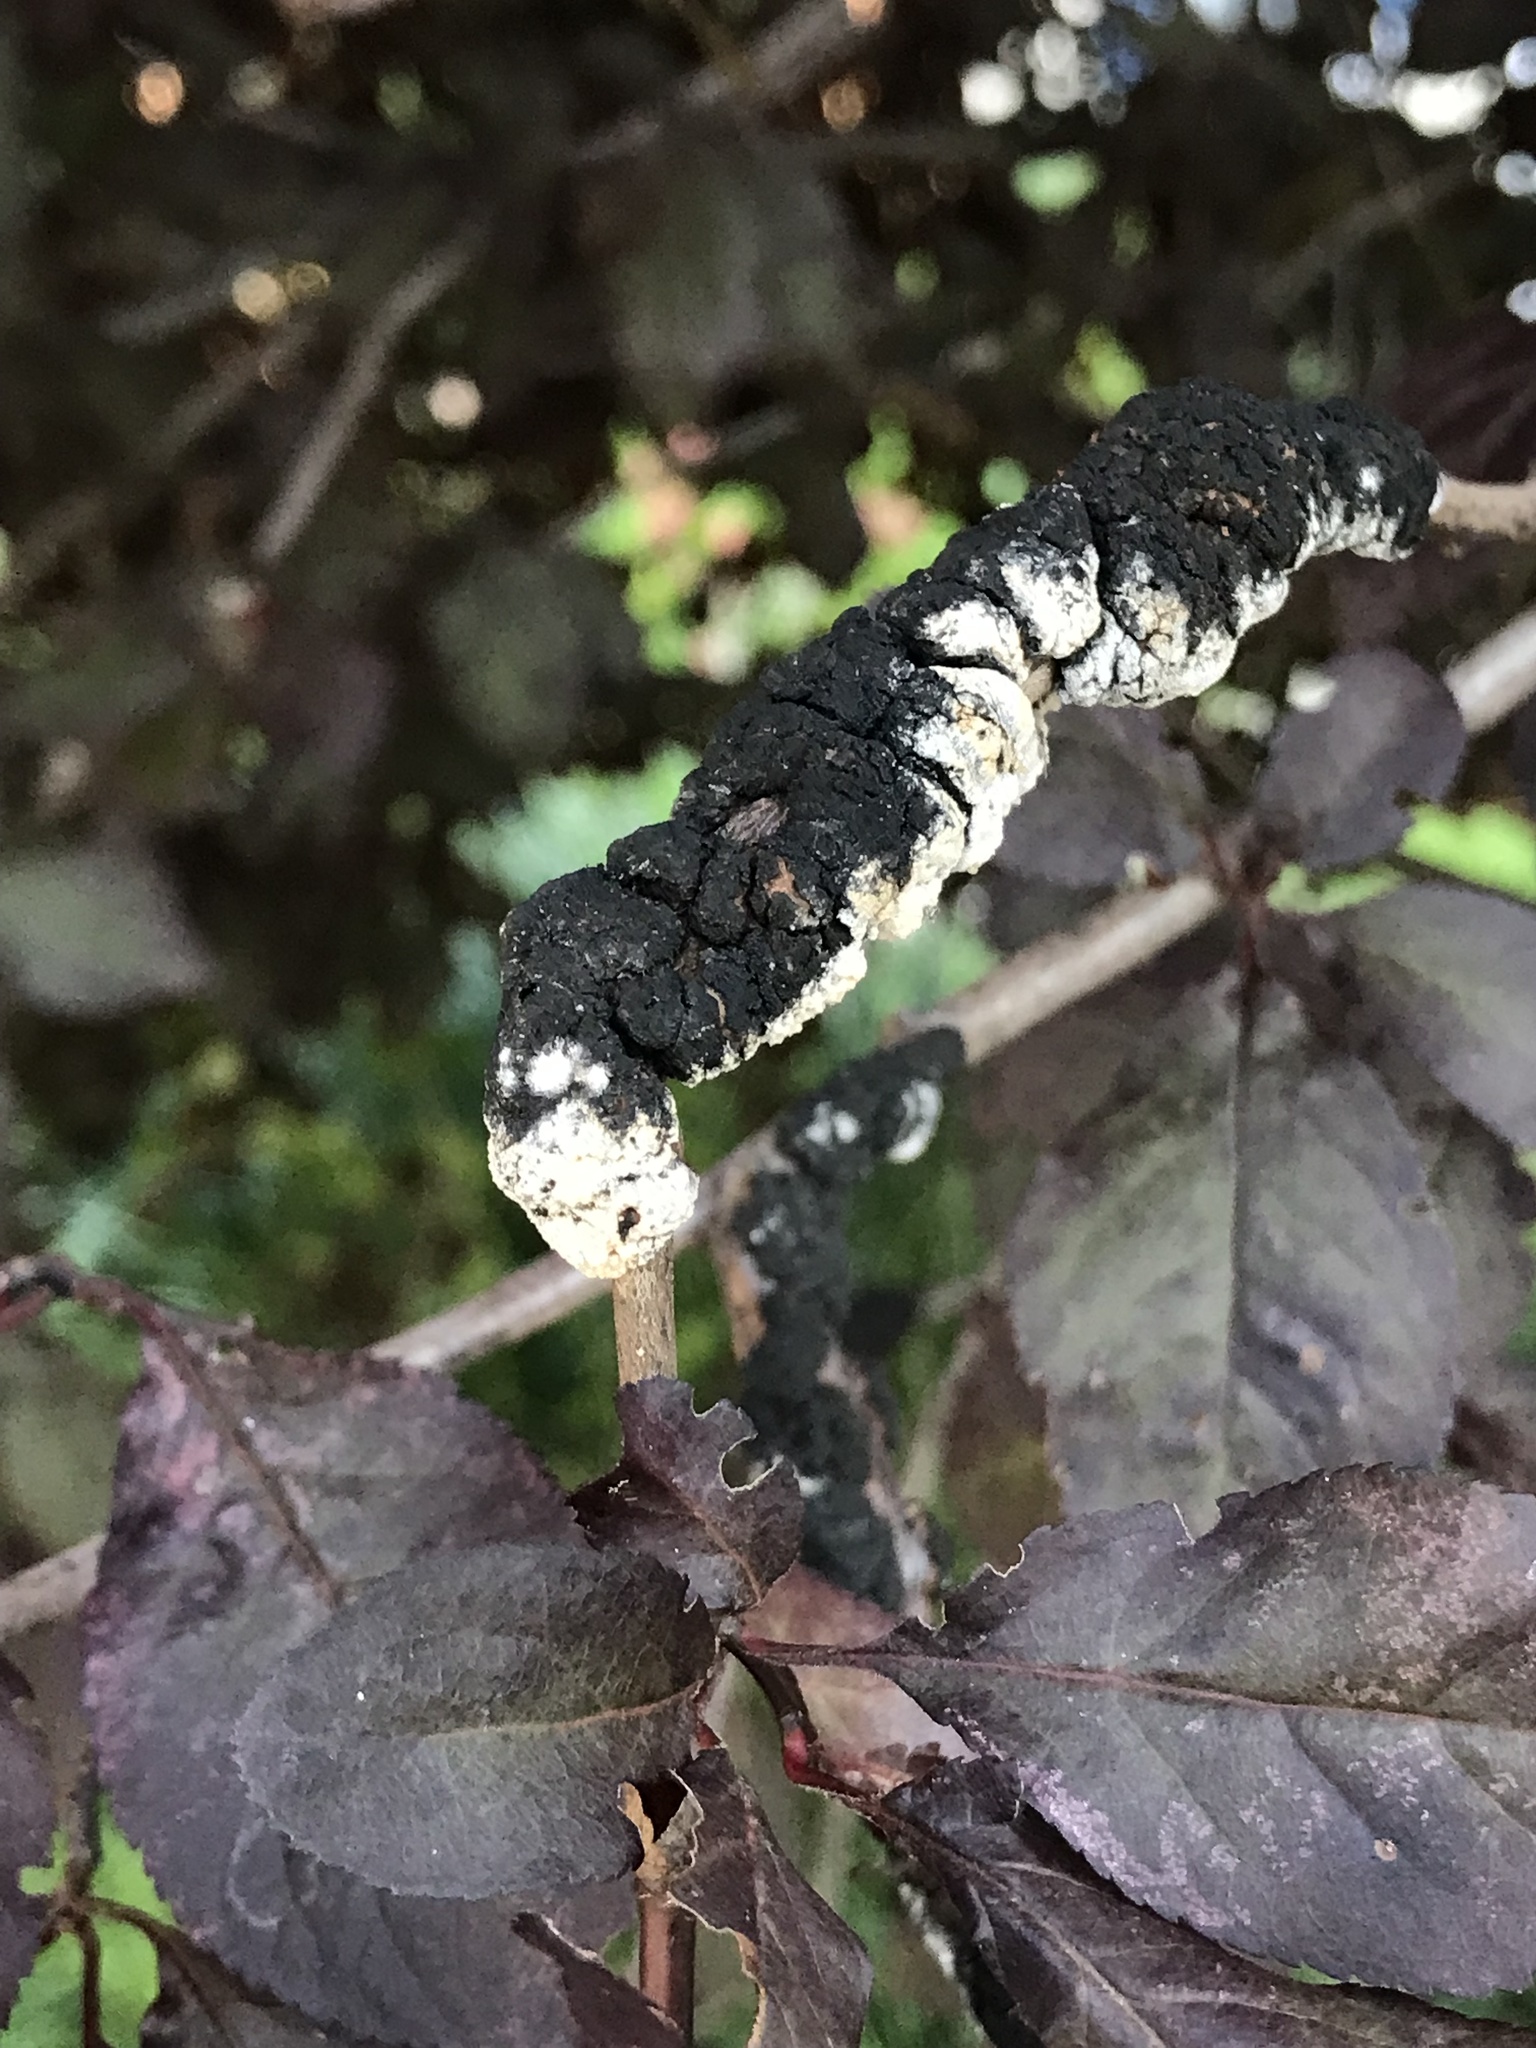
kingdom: Fungi
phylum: Ascomycota
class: Dothideomycetes
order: Venturiales
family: Venturiaceae
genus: Apiosporina
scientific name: Apiosporina morbosa
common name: Black knot
